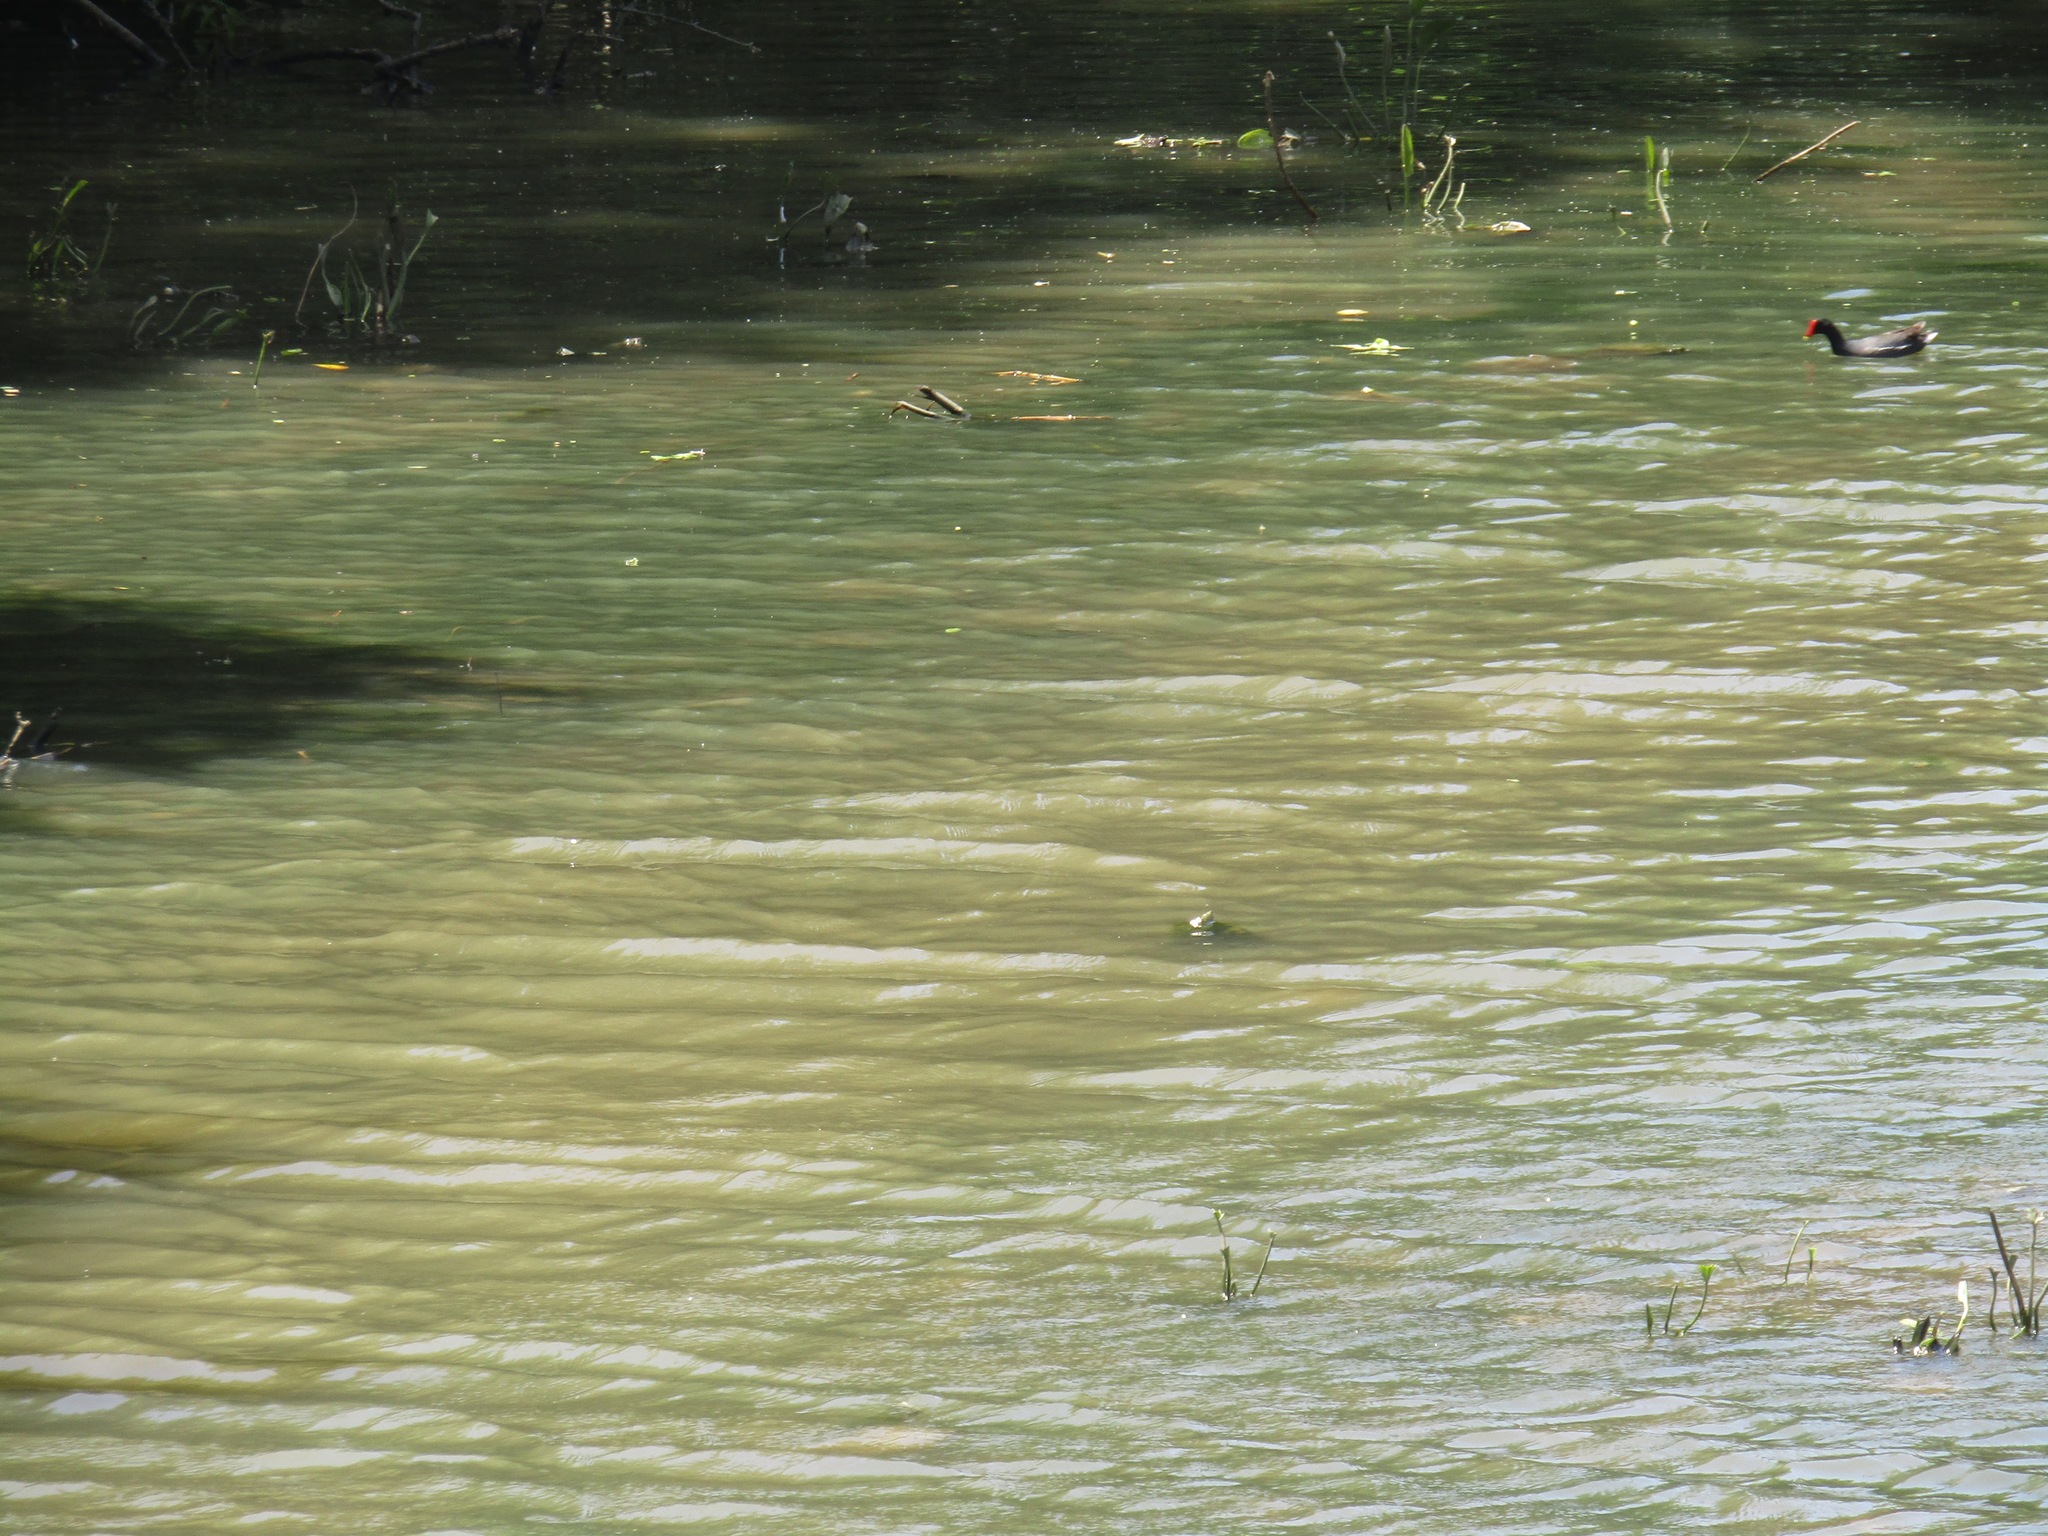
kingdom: Animalia
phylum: Chordata
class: Aves
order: Gruiformes
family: Rallidae
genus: Gallinula
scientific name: Gallinula chloropus
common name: Common moorhen
